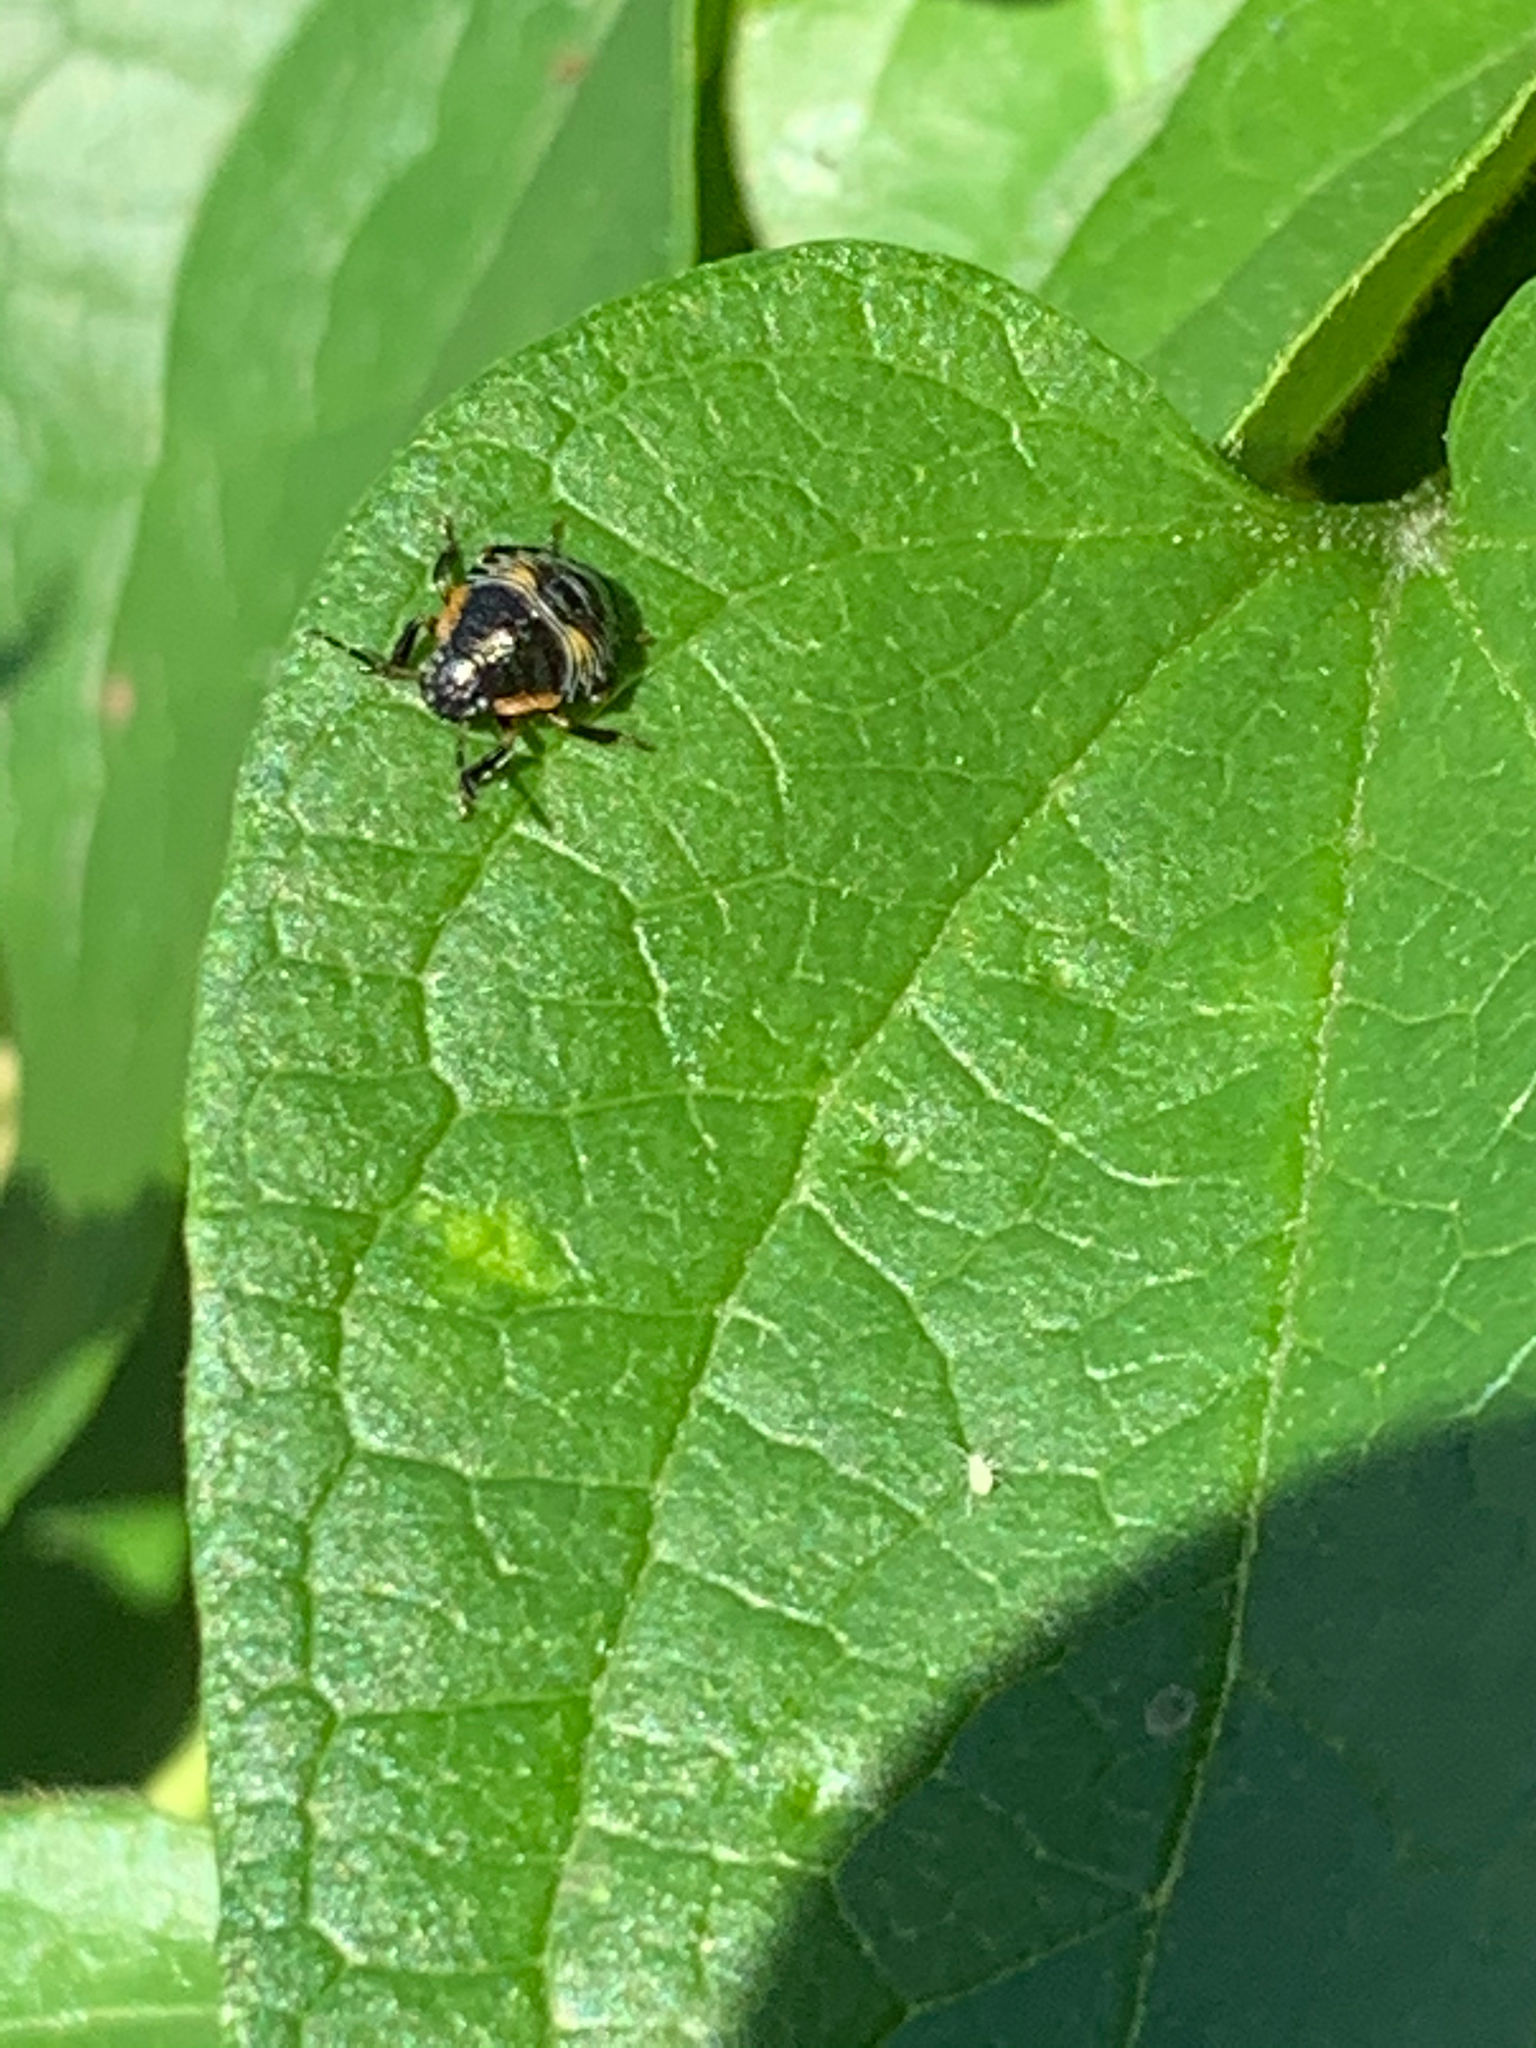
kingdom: Animalia
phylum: Arthropoda
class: Insecta
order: Hemiptera
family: Pentatomidae
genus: Chinavia
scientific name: Chinavia hilaris
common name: Green stink bug
